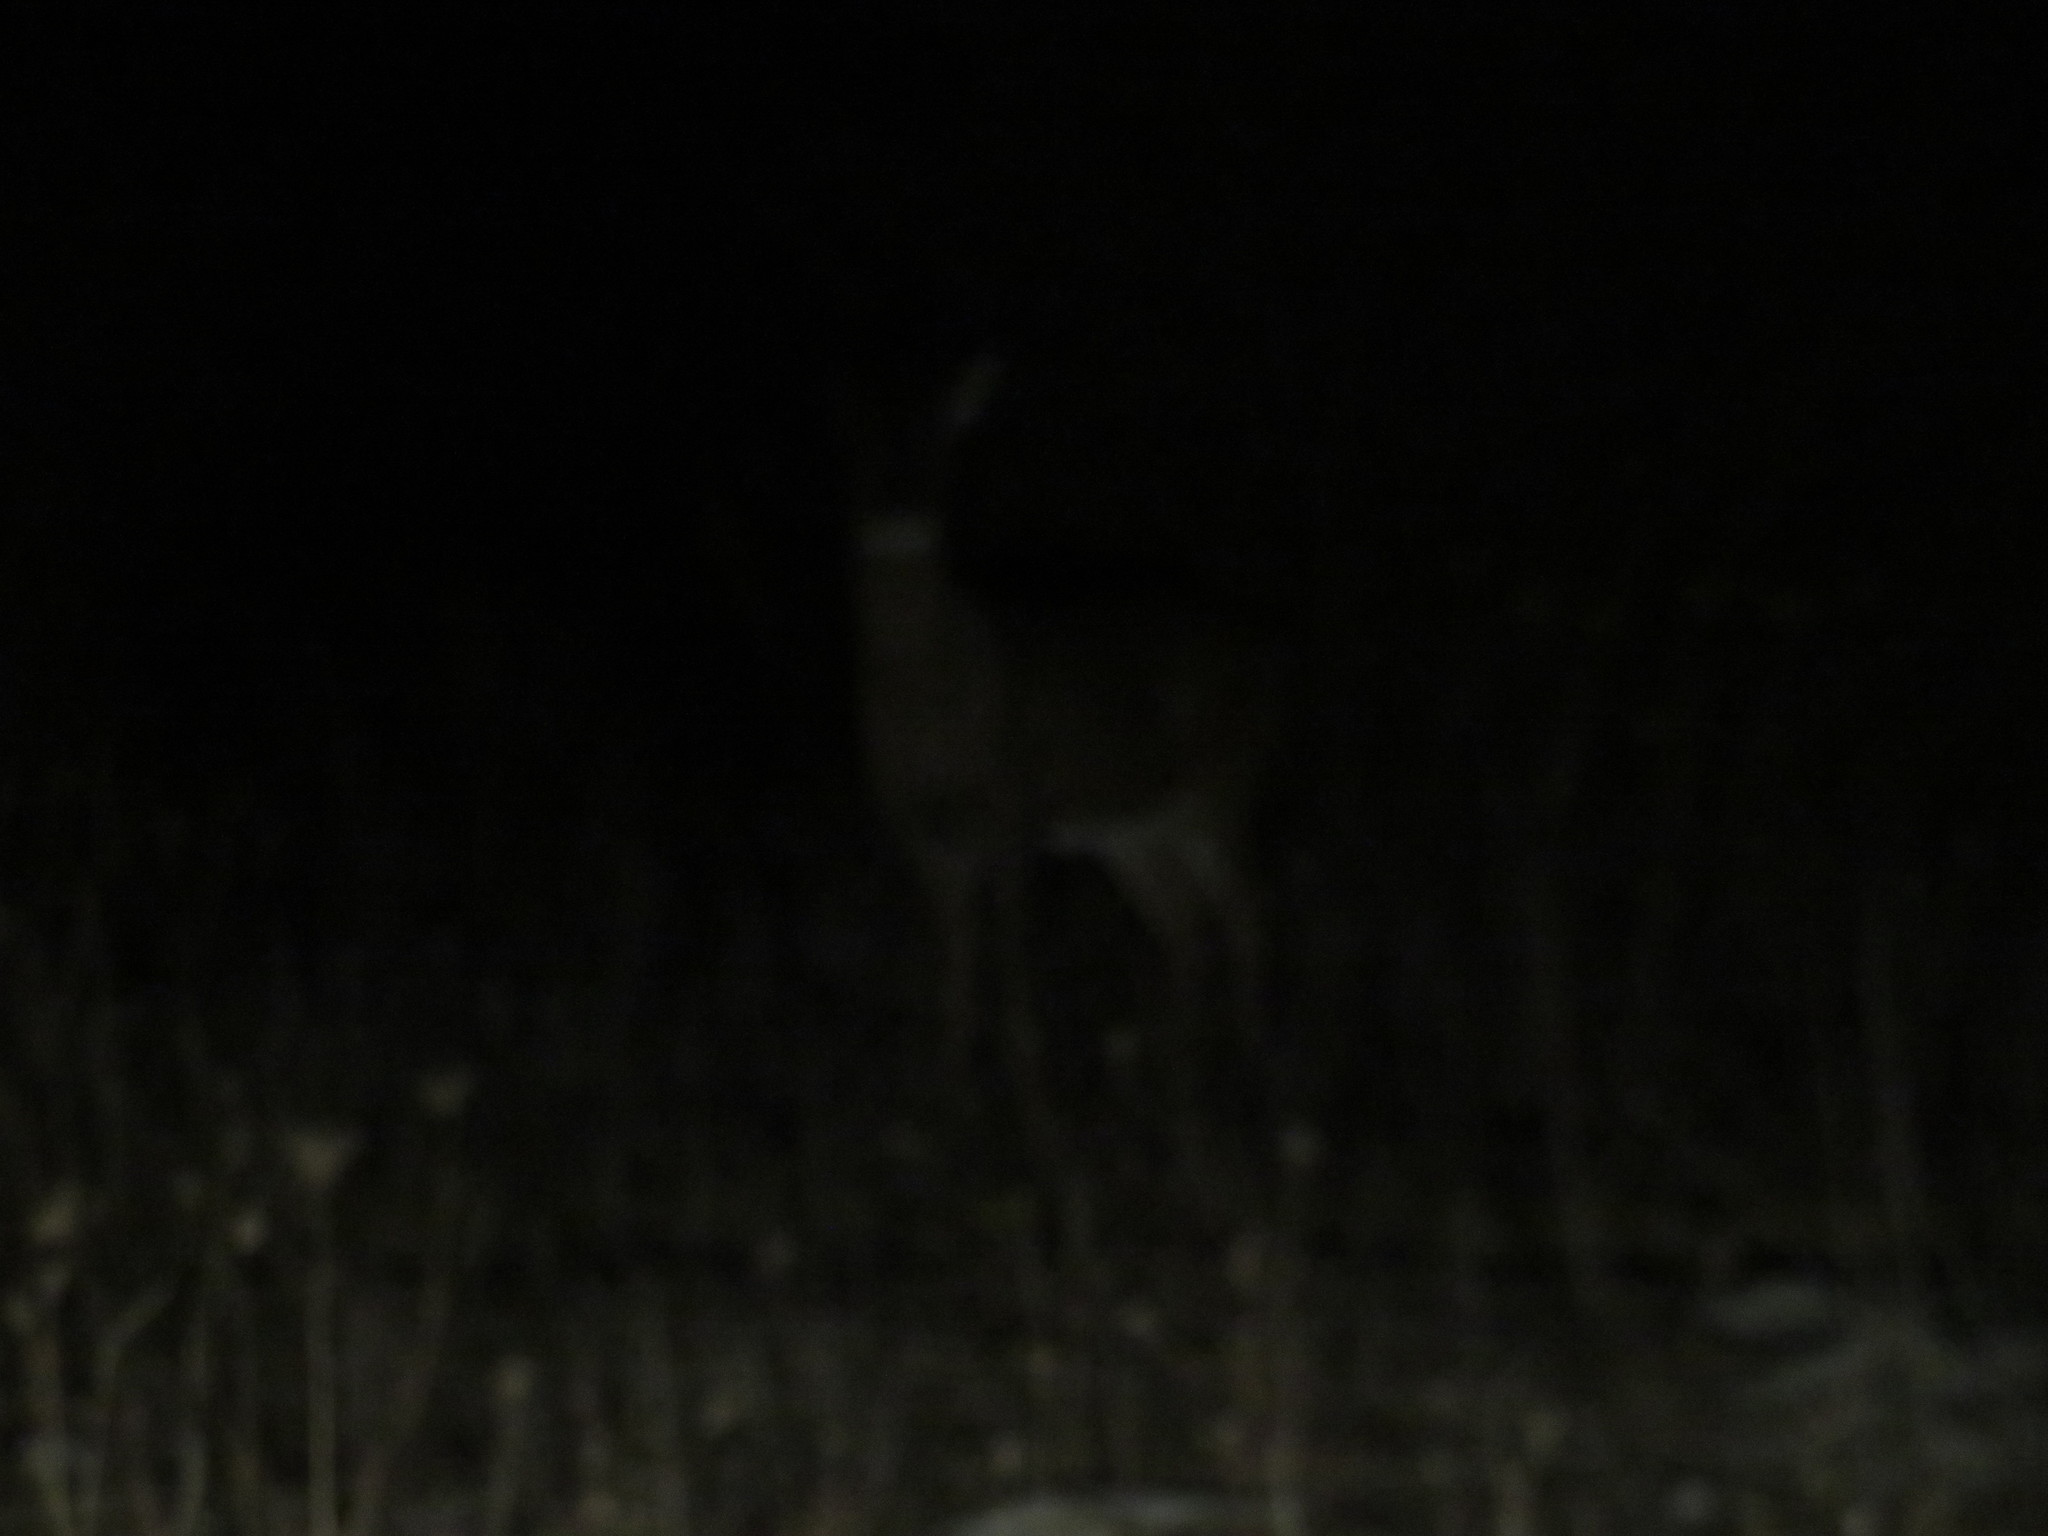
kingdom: Animalia
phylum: Chordata
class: Mammalia
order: Artiodactyla
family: Cervidae
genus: Odocoileus
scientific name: Odocoileus virginianus
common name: White-tailed deer
